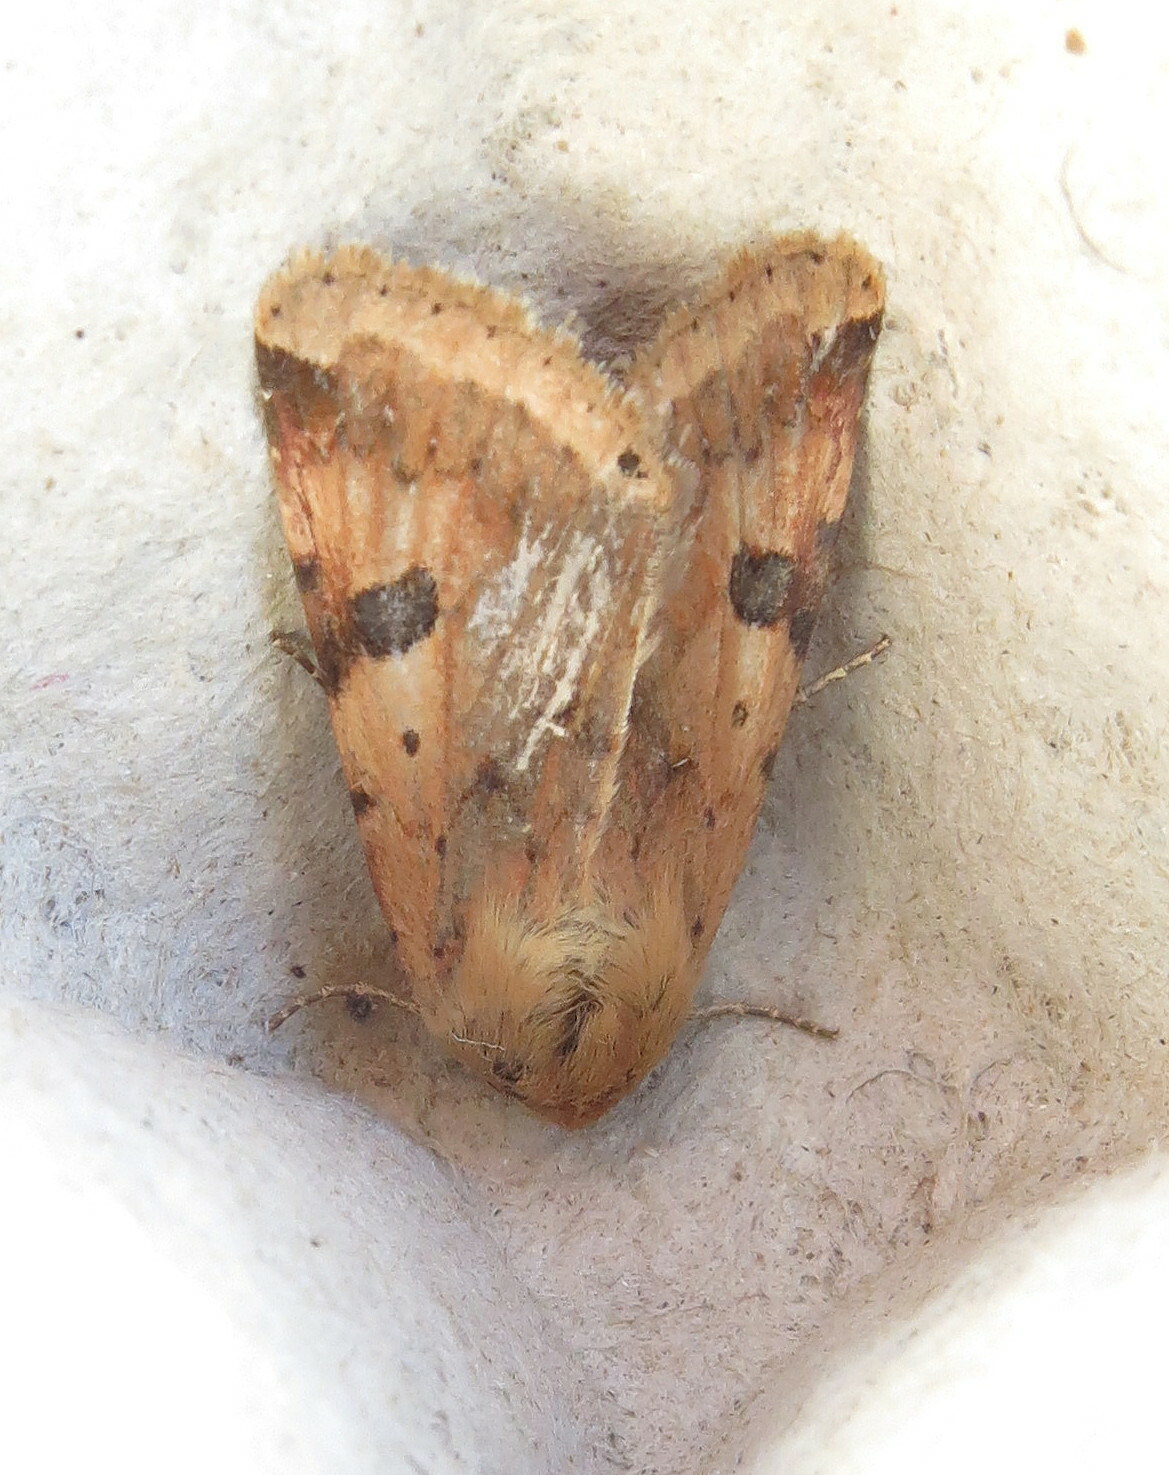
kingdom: Animalia
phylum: Arthropoda
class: Insecta
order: Lepidoptera
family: Noctuidae
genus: Heliothis
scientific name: Heliothis peltigera
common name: Bordered straw
